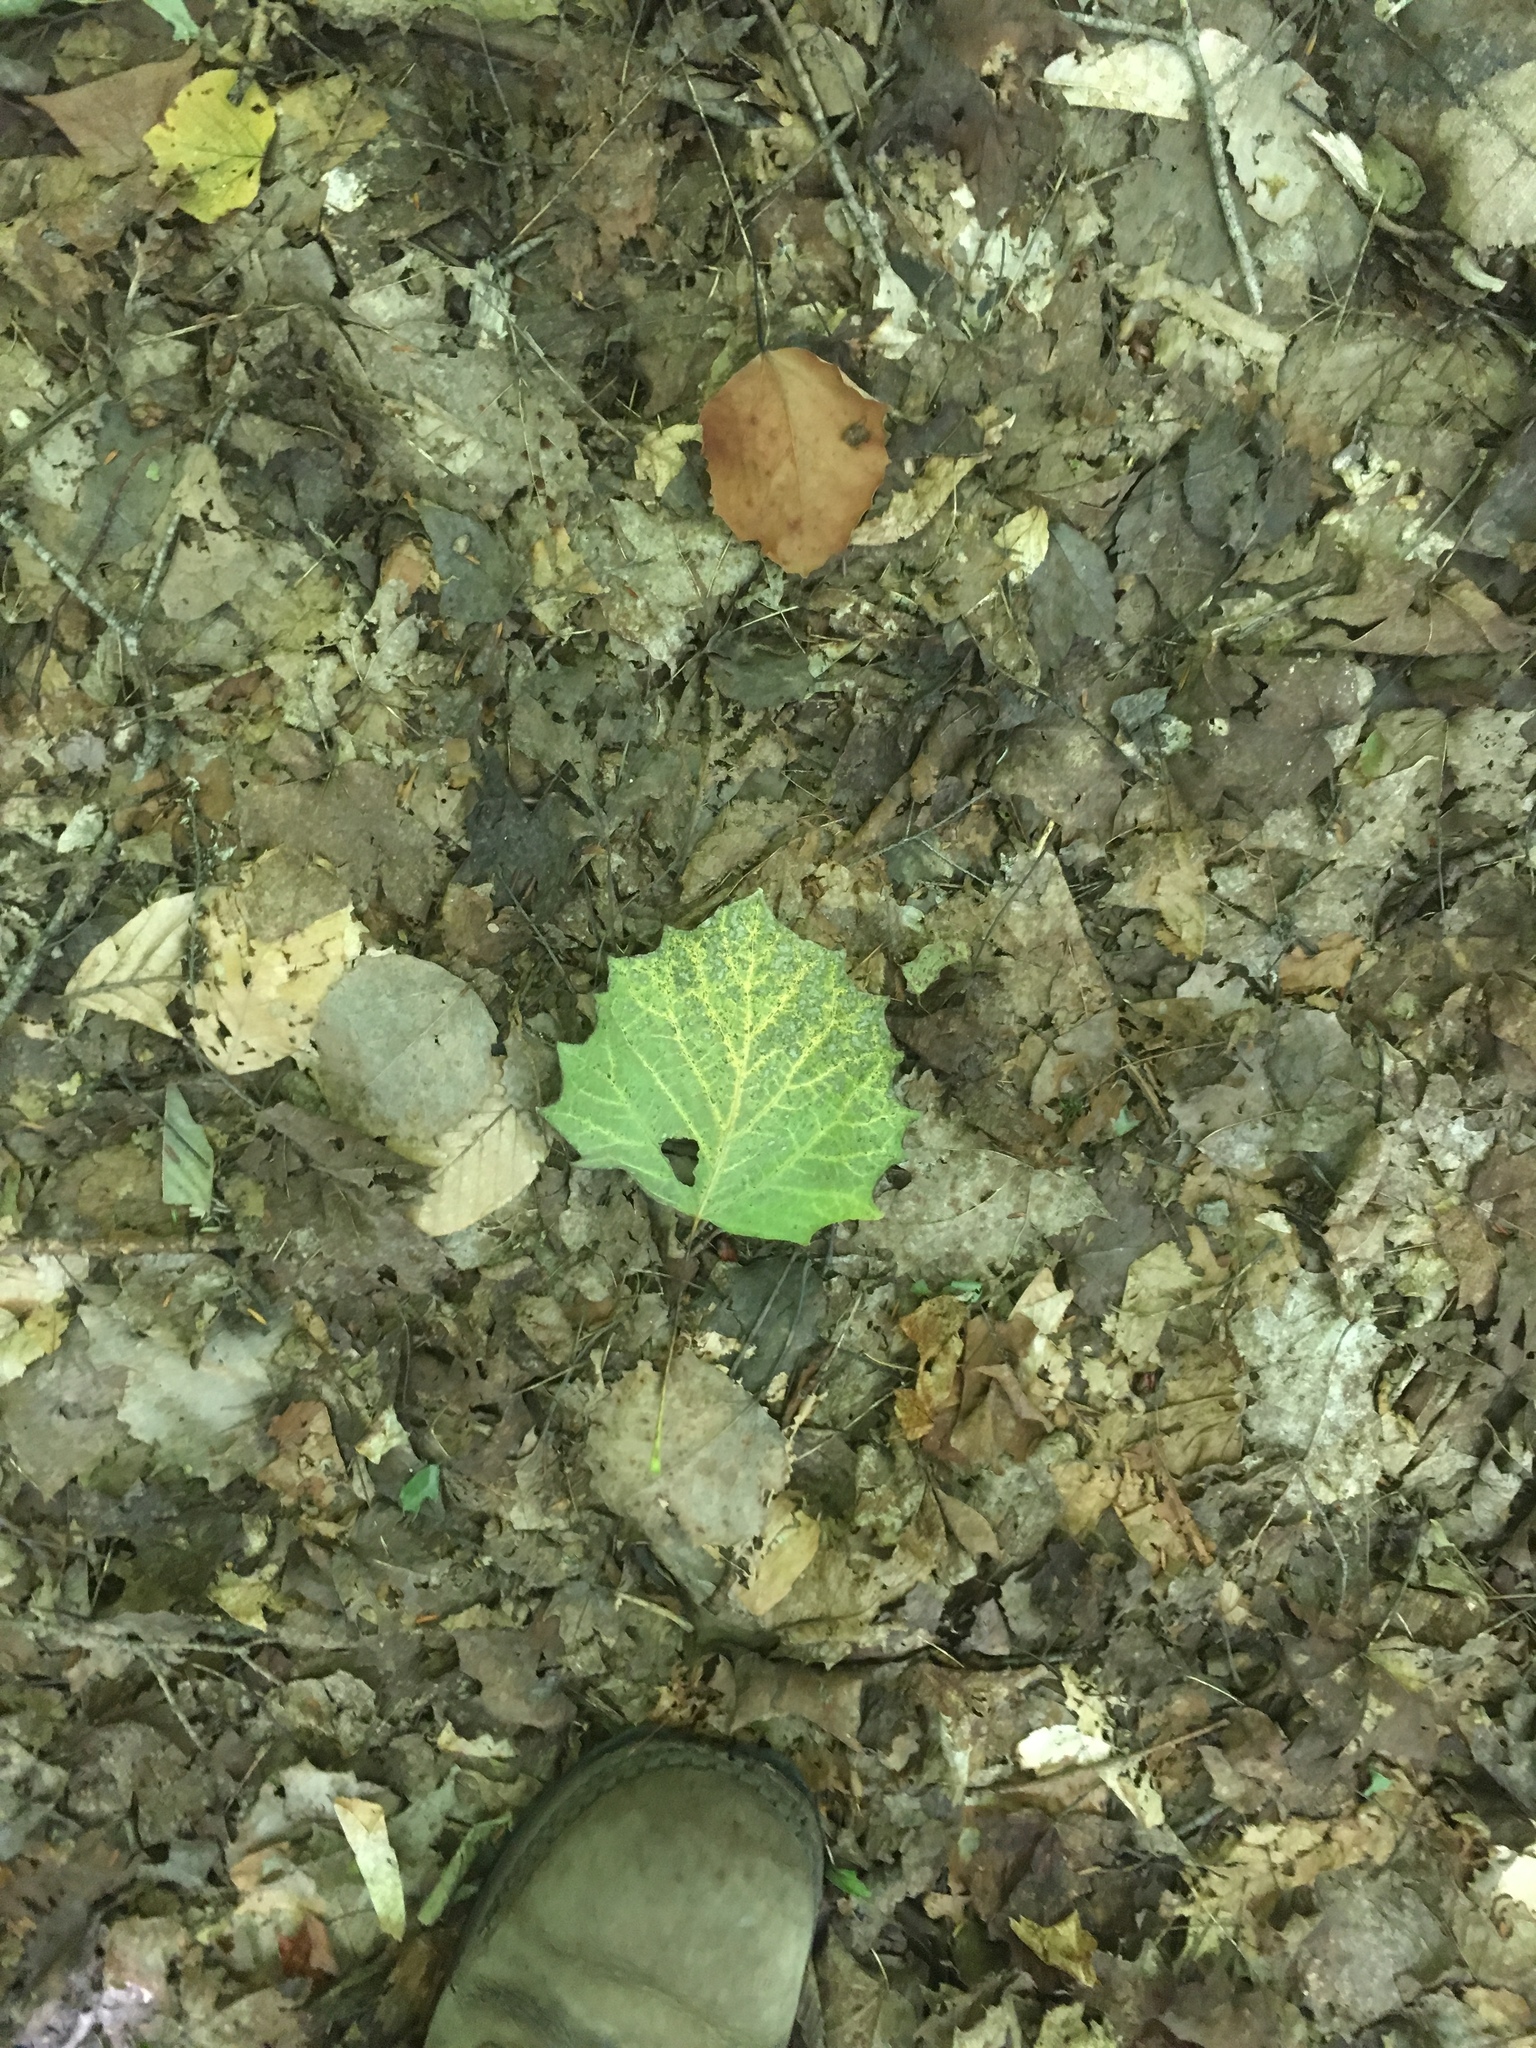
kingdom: Plantae
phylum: Tracheophyta
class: Magnoliopsida
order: Malpighiales
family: Salicaceae
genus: Populus
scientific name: Populus grandidentata
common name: Bigtooth aspen
